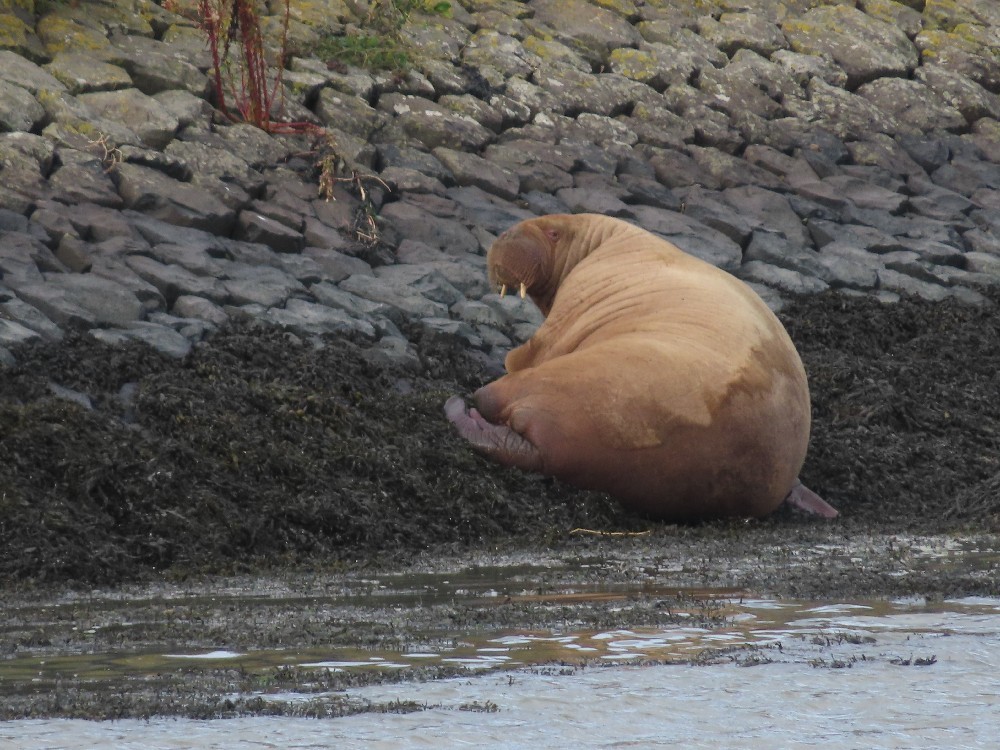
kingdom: Animalia
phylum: Chordata
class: Mammalia
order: Carnivora
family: Odobenidae
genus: Odobenus
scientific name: Odobenus rosmarus
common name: Walrus
